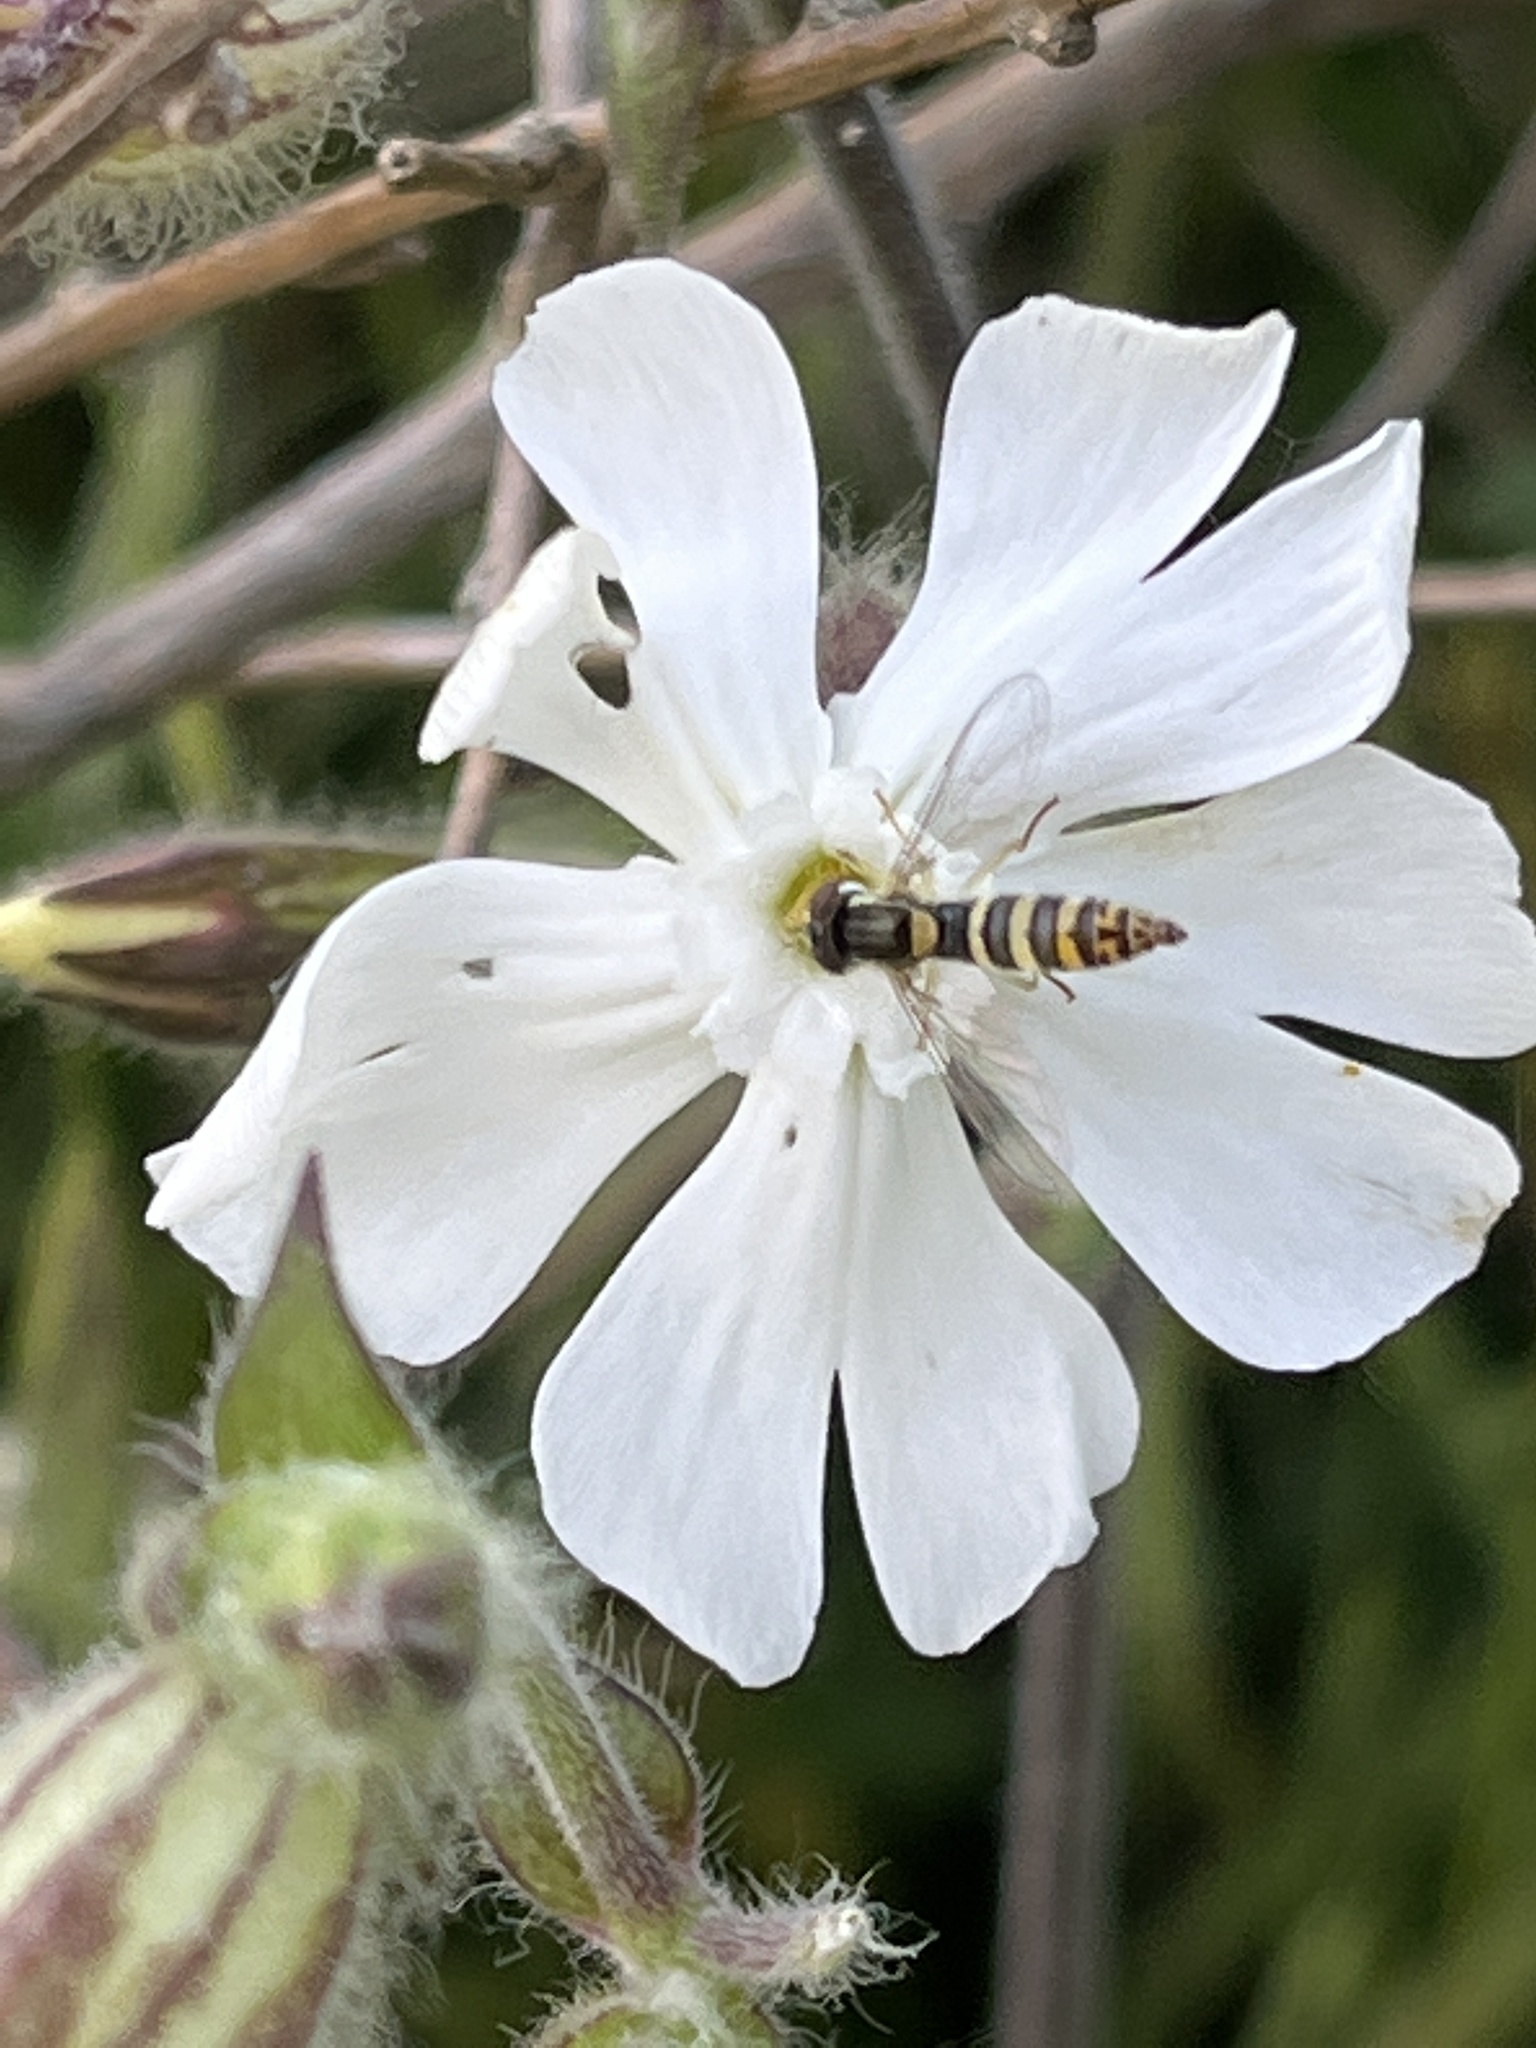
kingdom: Animalia
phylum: Arthropoda
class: Insecta
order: Diptera
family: Syrphidae
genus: Sphaerophoria
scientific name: Sphaerophoria
